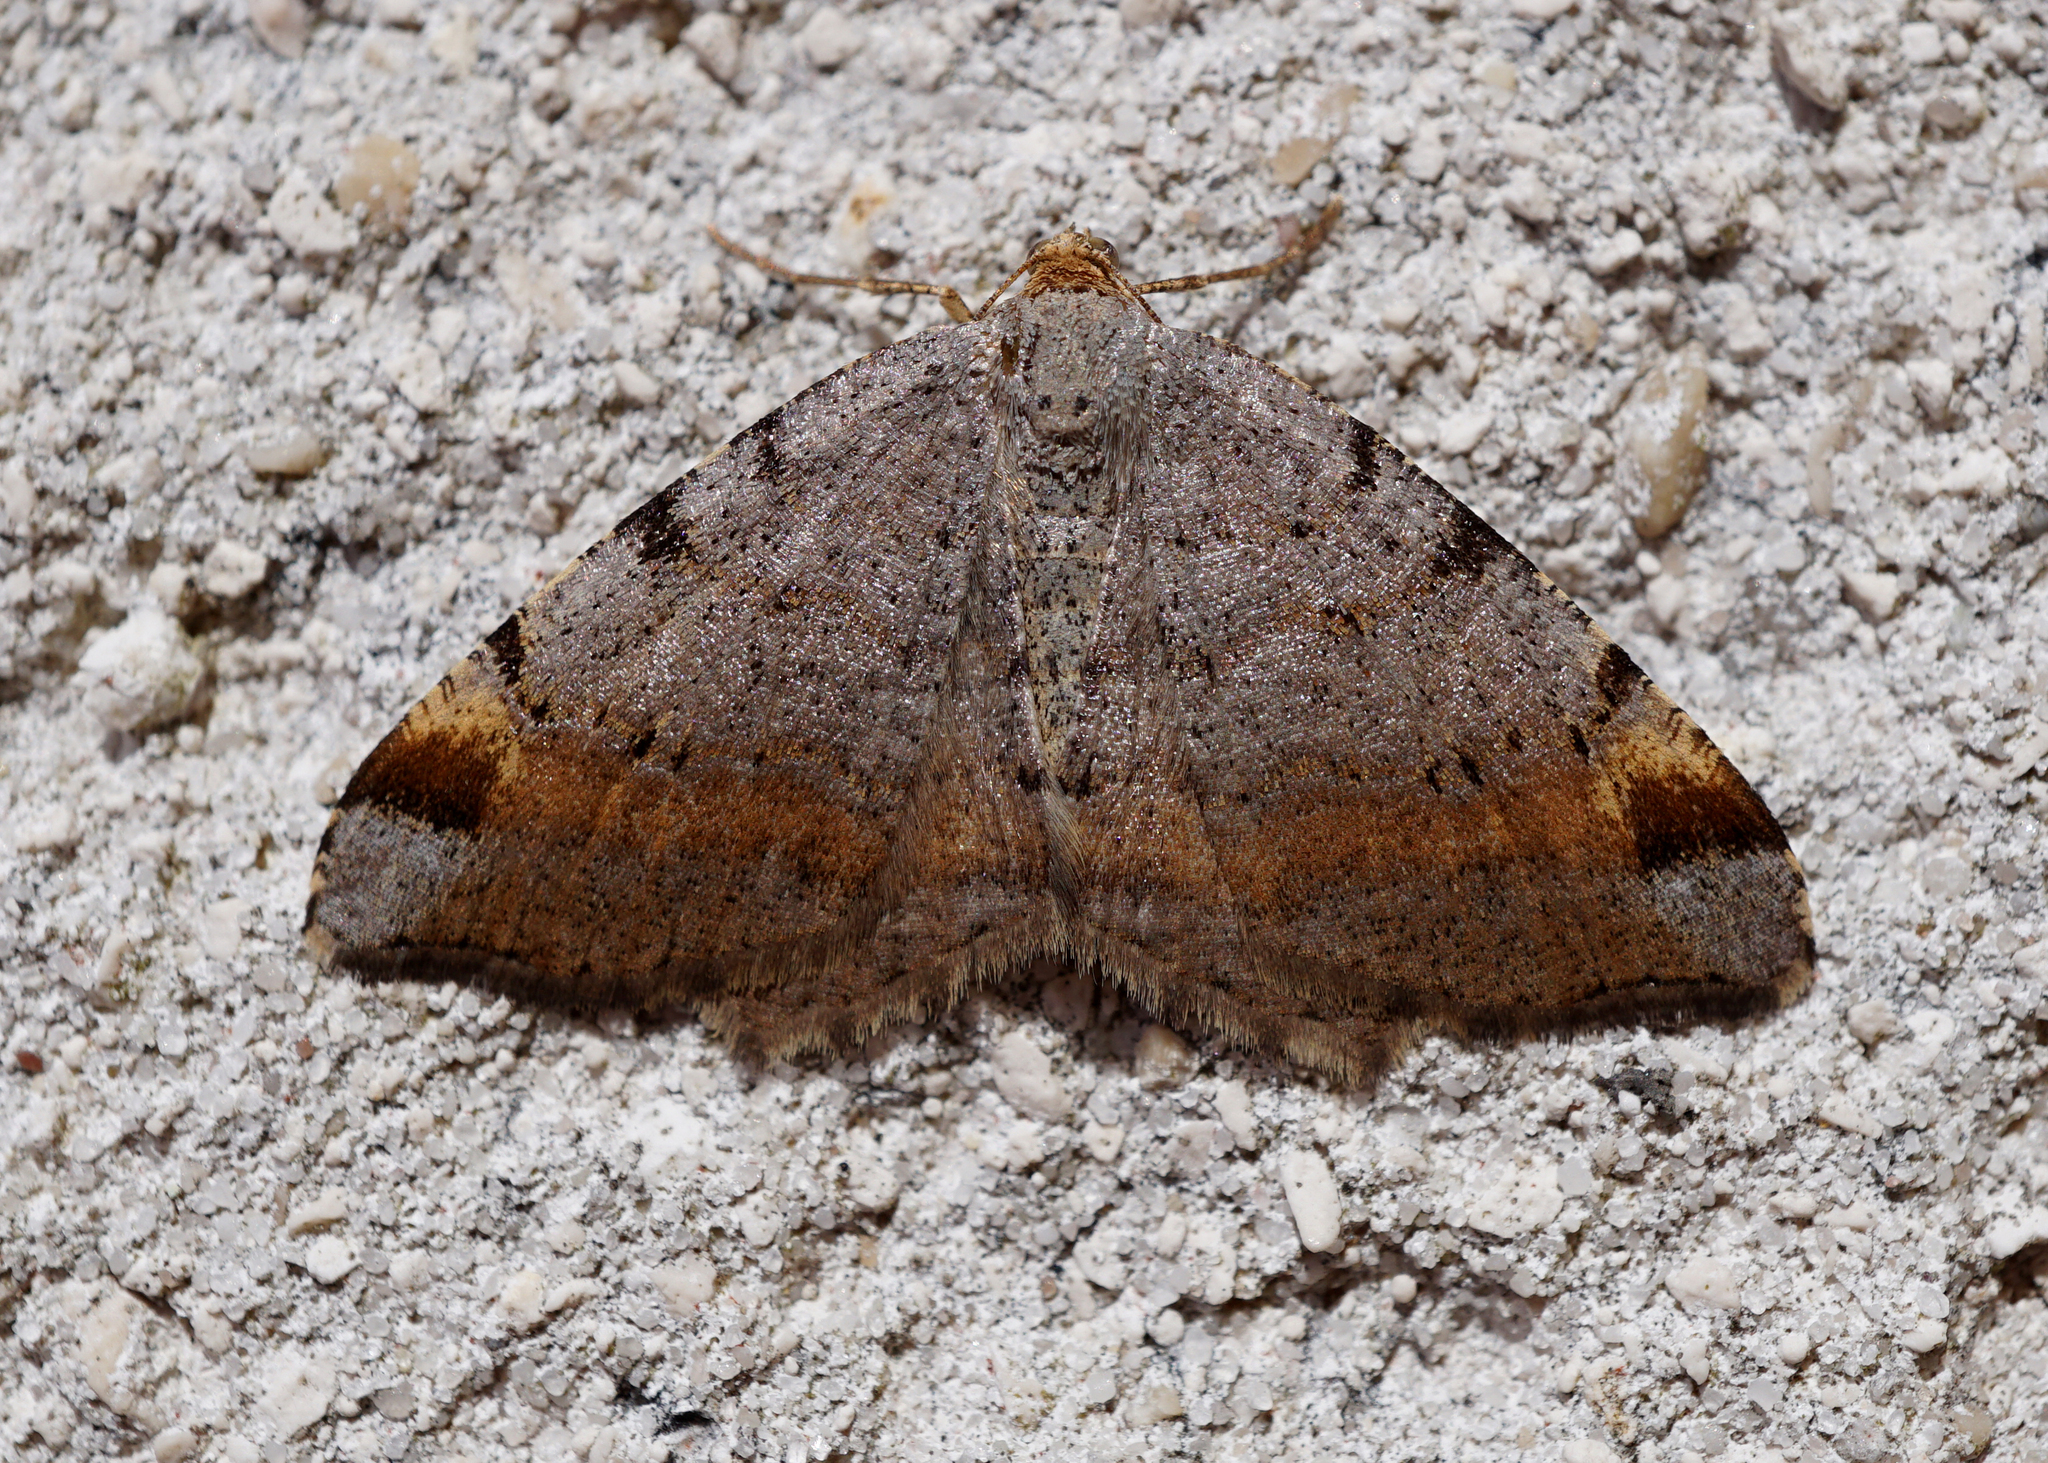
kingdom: Animalia
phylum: Arthropoda
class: Insecta
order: Lepidoptera
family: Geometridae
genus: Macaria
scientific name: Macaria liturata
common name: Tawny-barred angle
